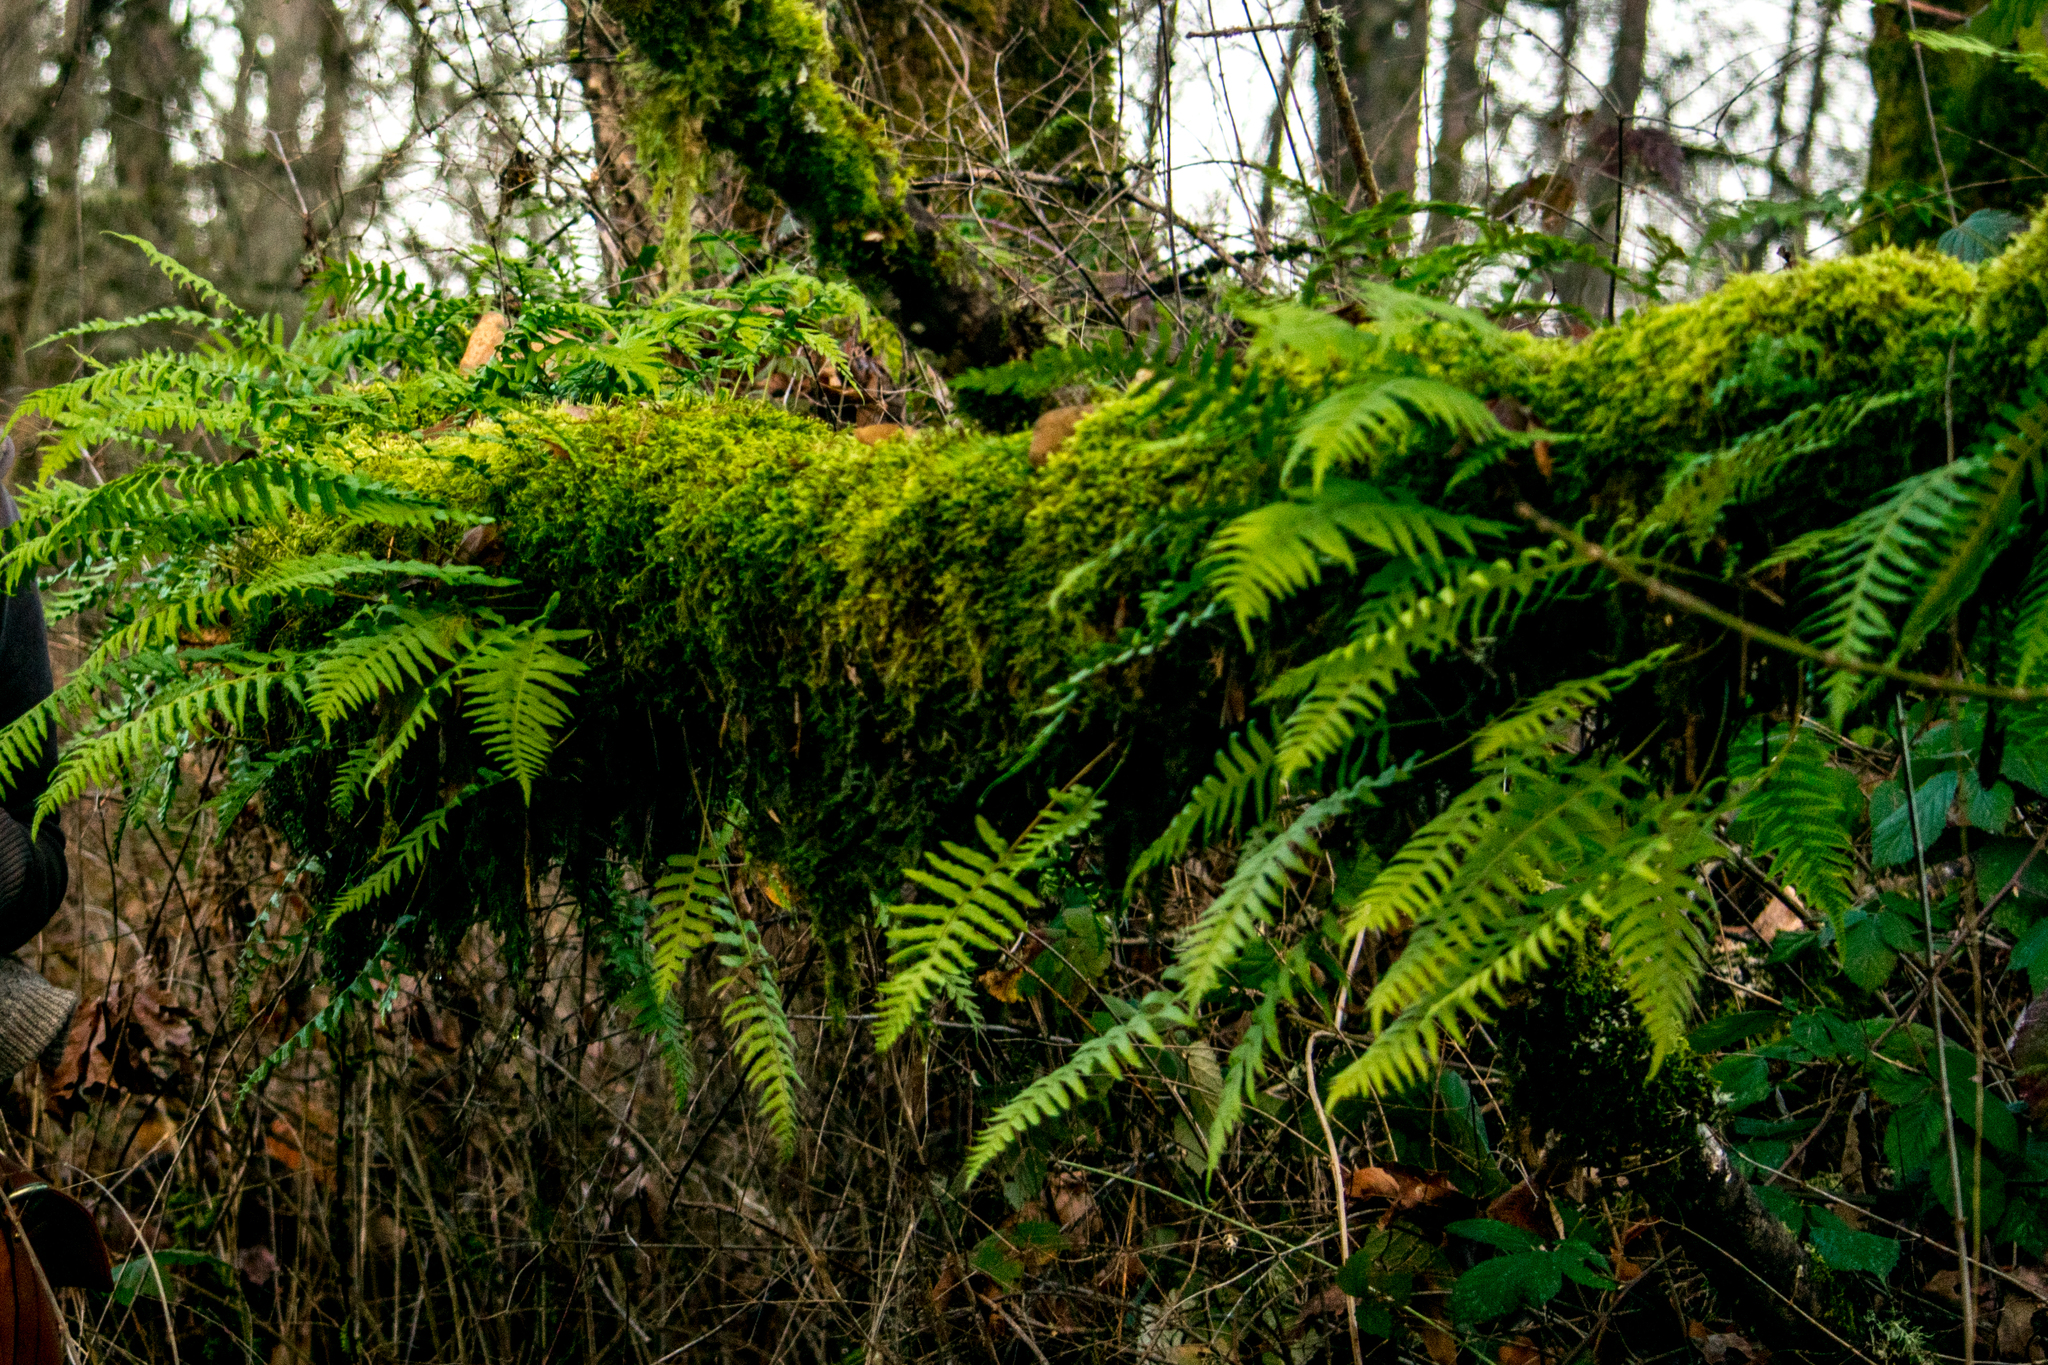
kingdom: Plantae
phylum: Tracheophyta
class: Polypodiopsida
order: Polypodiales
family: Polypodiaceae
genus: Polypodium
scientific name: Polypodium glycyrrhiza
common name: Licorice fern
